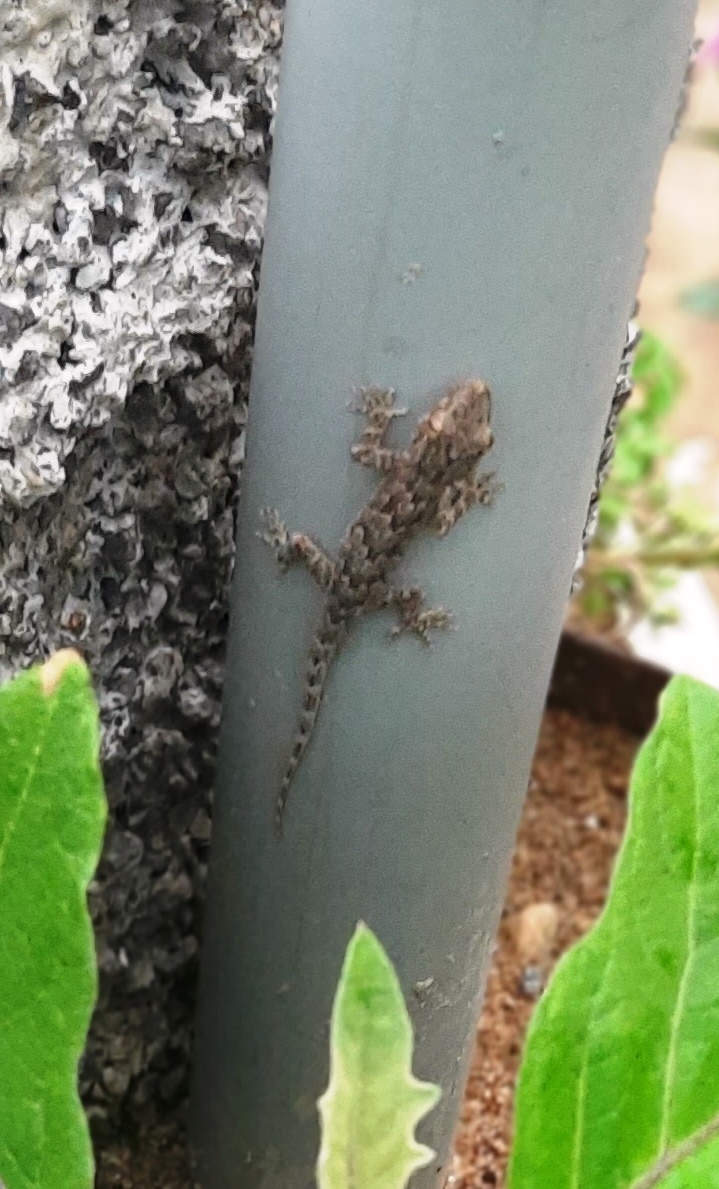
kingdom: Animalia
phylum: Chordata
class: Squamata
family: Gekkonidae
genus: Hemidactylus
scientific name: Hemidactylus flaviviridis
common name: Northern house gecko
